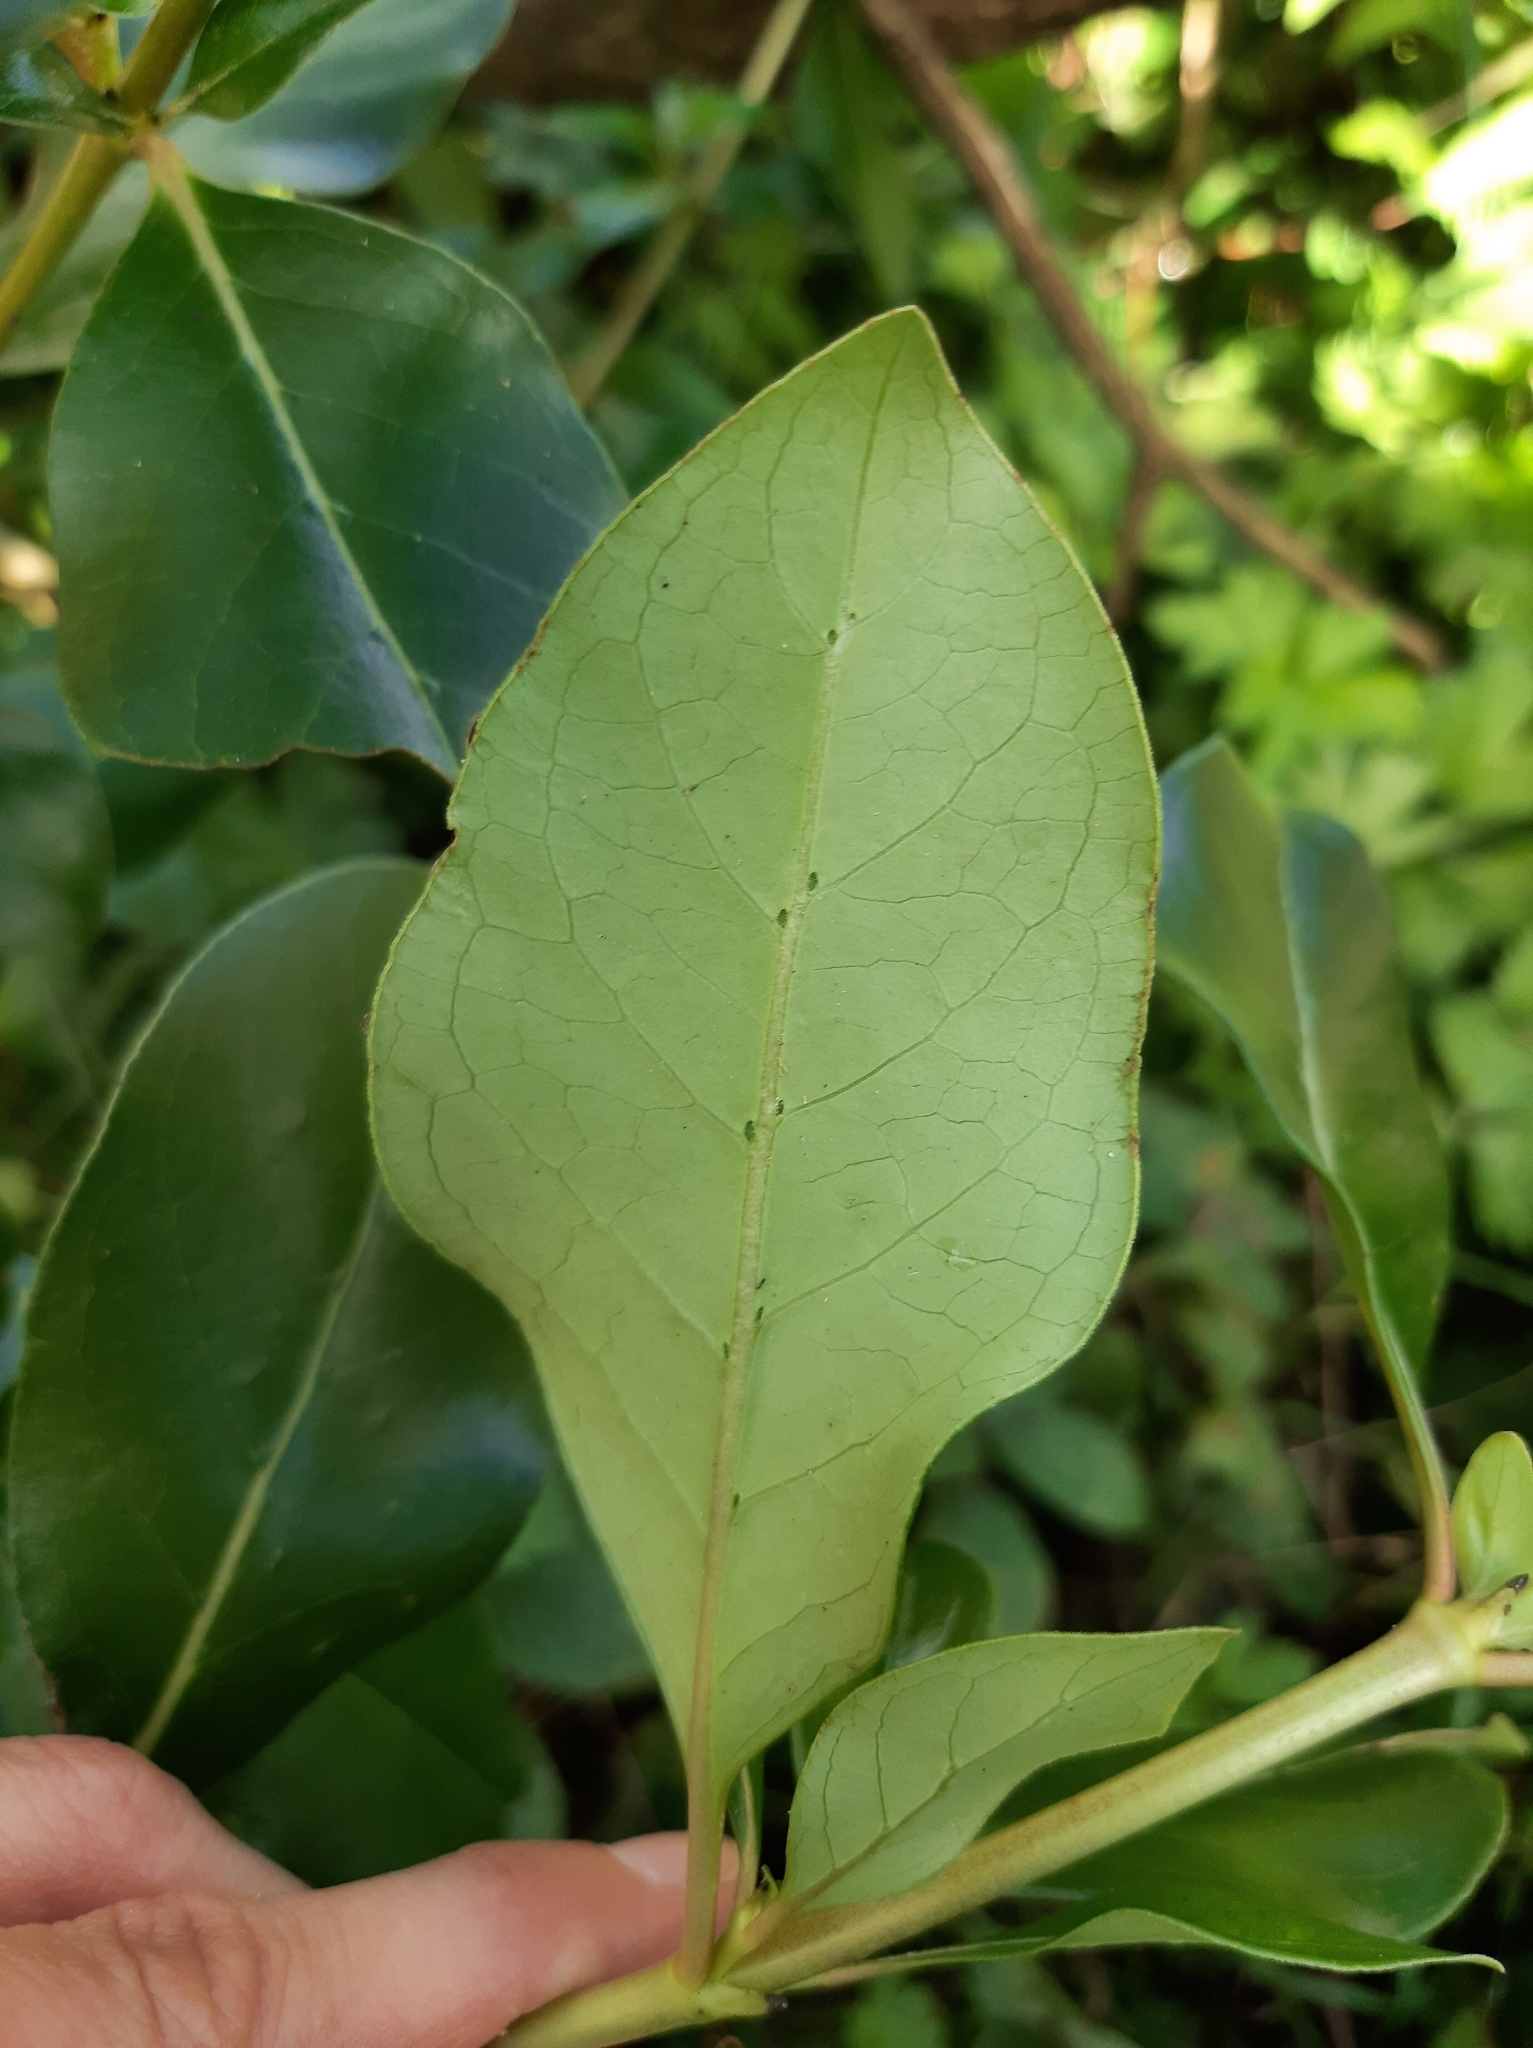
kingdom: Plantae
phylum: Tracheophyta
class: Magnoliopsida
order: Gentianales
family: Rubiaceae
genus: Coprosma
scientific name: Coprosma robusta
